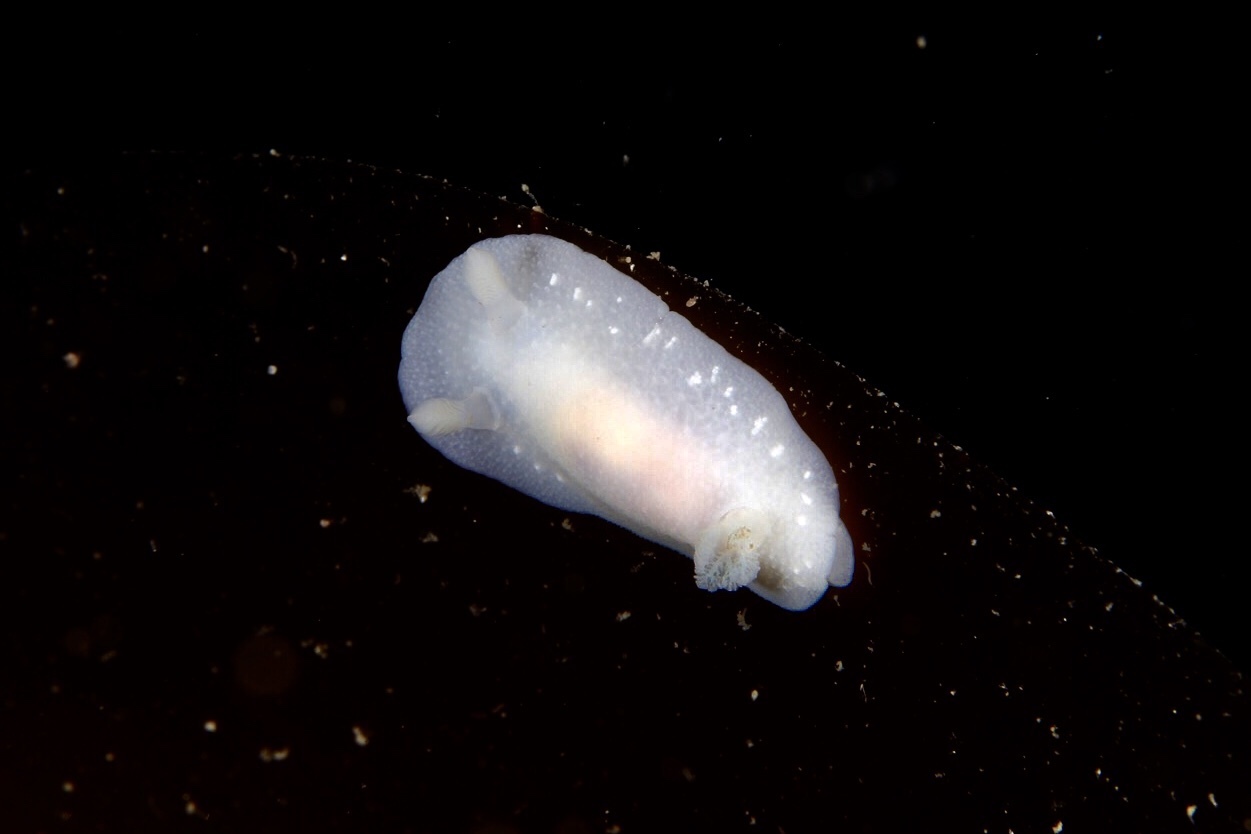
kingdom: Animalia
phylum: Mollusca
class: Gastropoda
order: Nudibranchia
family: Cadlinidae
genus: Cadlina
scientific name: Cadlina laevis
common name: White atlantic cadlina
